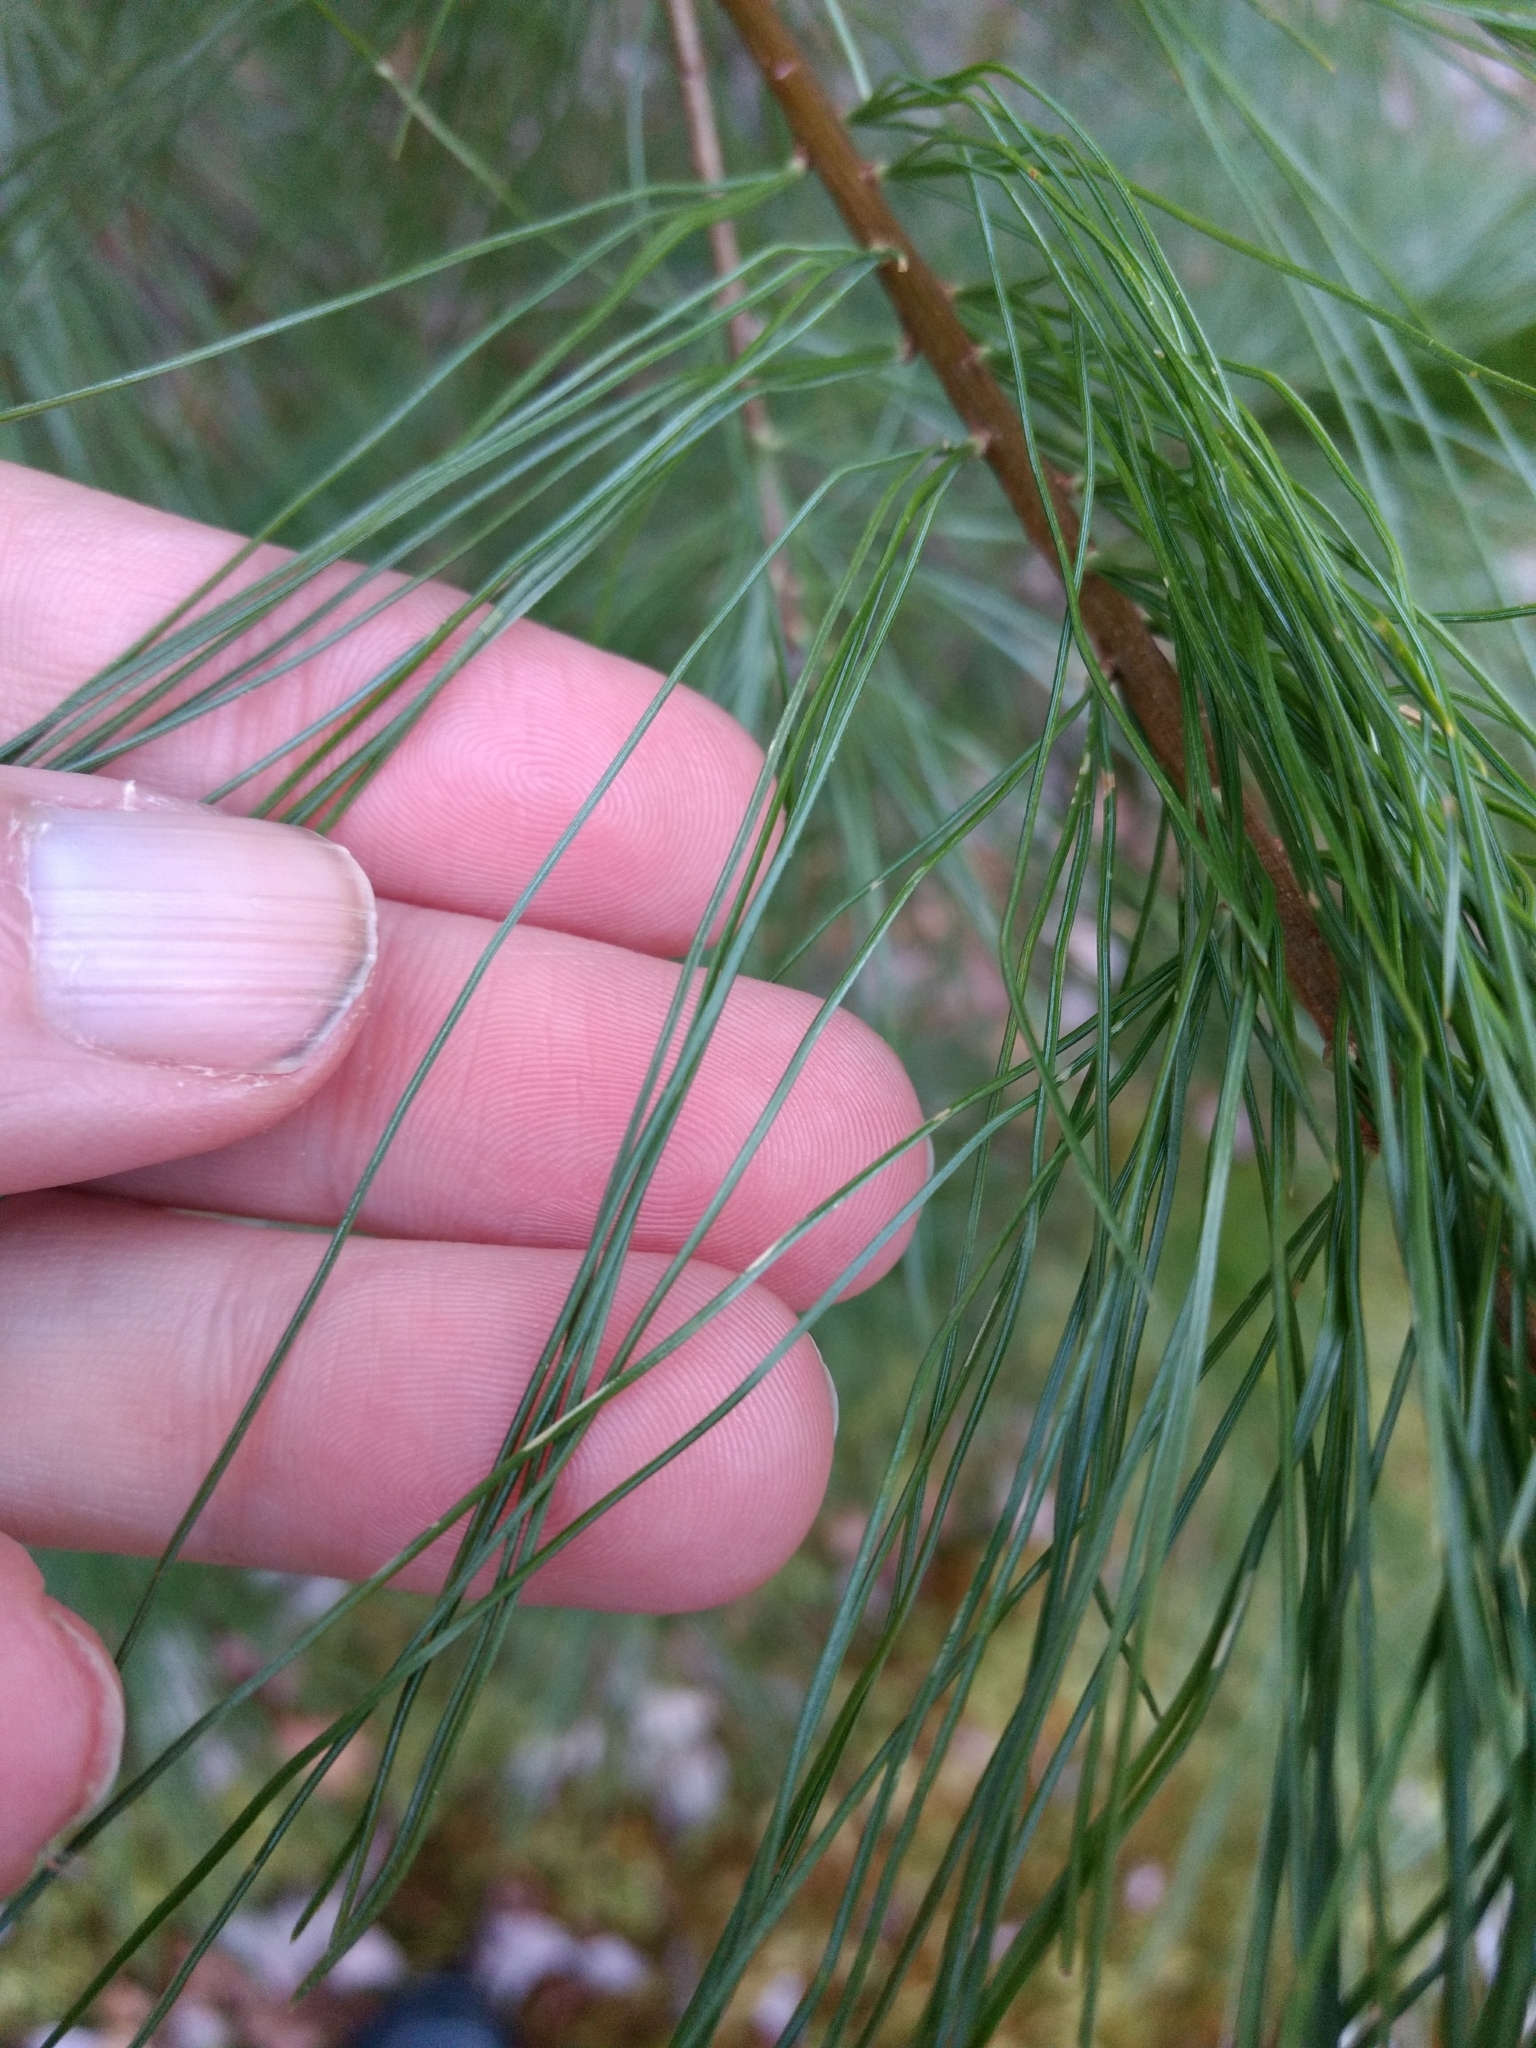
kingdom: Plantae
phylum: Tracheophyta
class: Pinopsida
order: Pinales
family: Pinaceae
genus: Pinus
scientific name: Pinus strobus
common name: Weymouth pine
